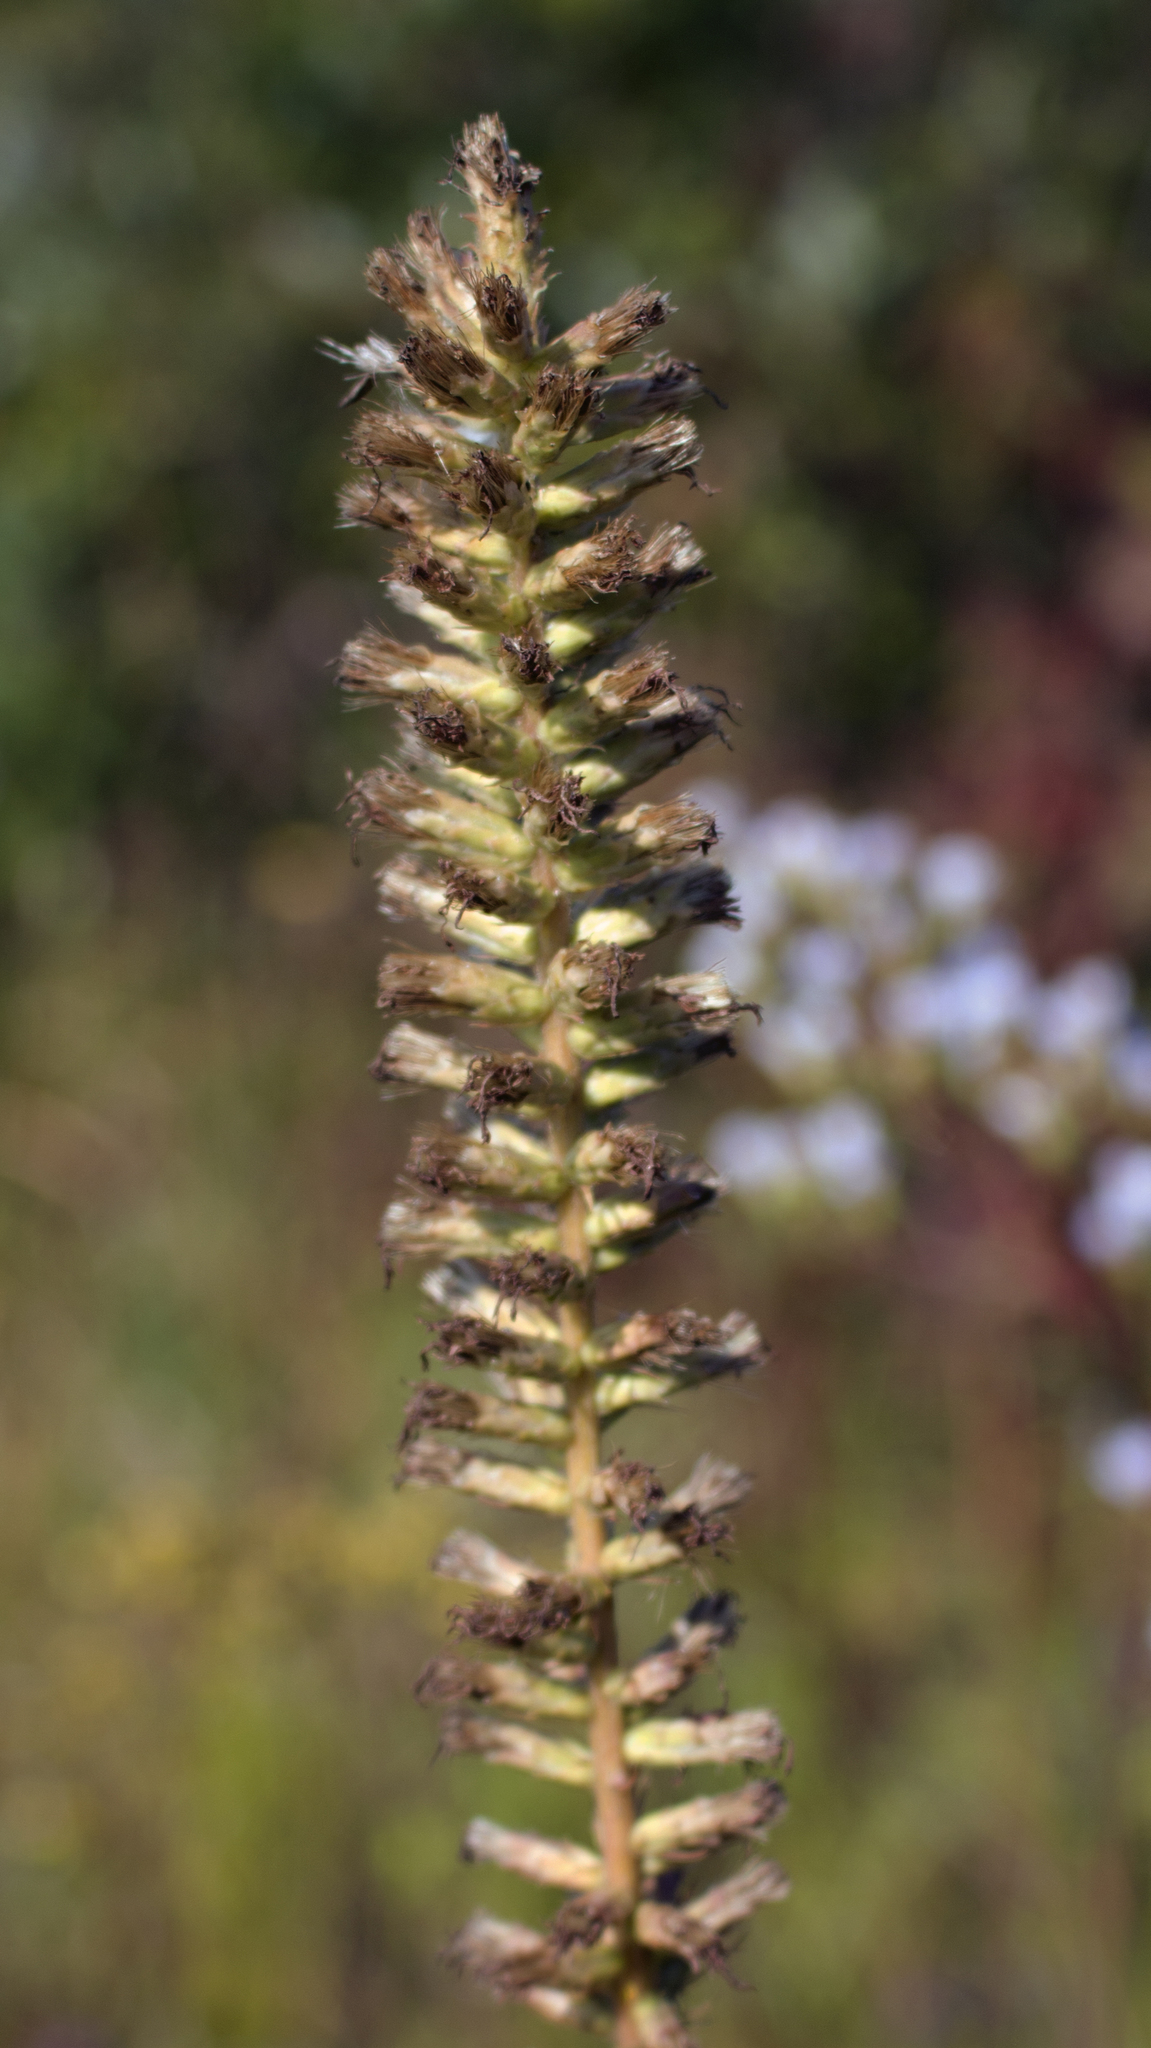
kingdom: Plantae
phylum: Tracheophyta
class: Magnoliopsida
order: Asterales
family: Asteraceae
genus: Liatris
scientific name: Liatris spicata
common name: Florist gayfeather
